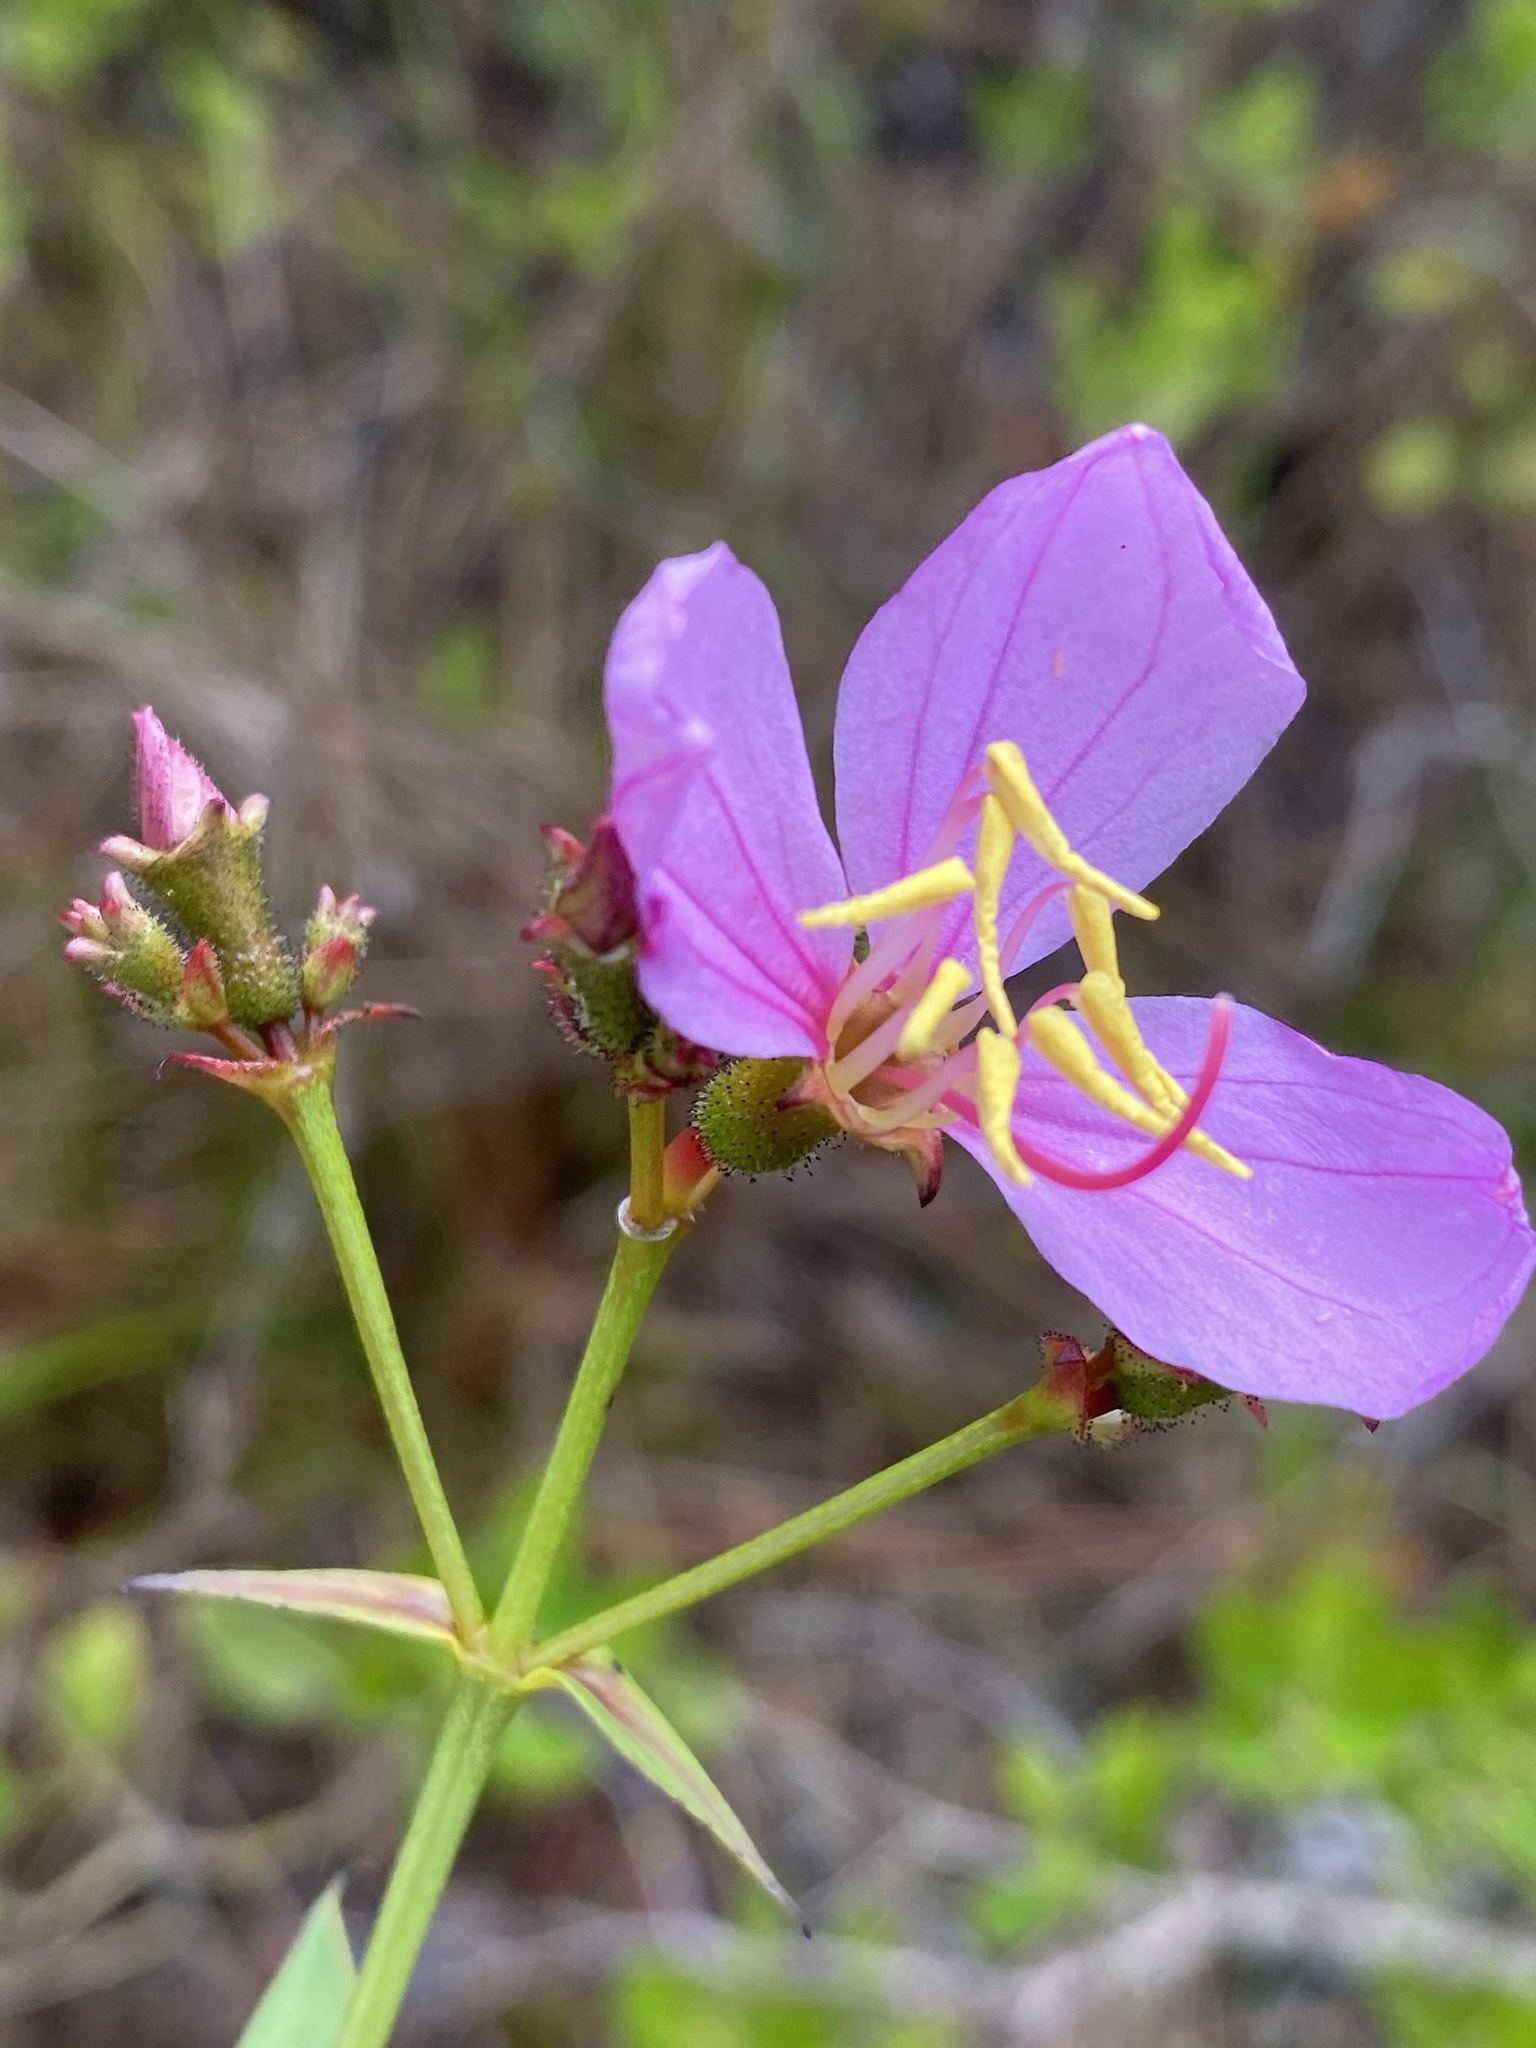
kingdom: Plantae
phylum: Tracheophyta
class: Magnoliopsida
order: Myrtales
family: Melastomataceae
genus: Rhexia
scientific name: Rhexia alifanus
